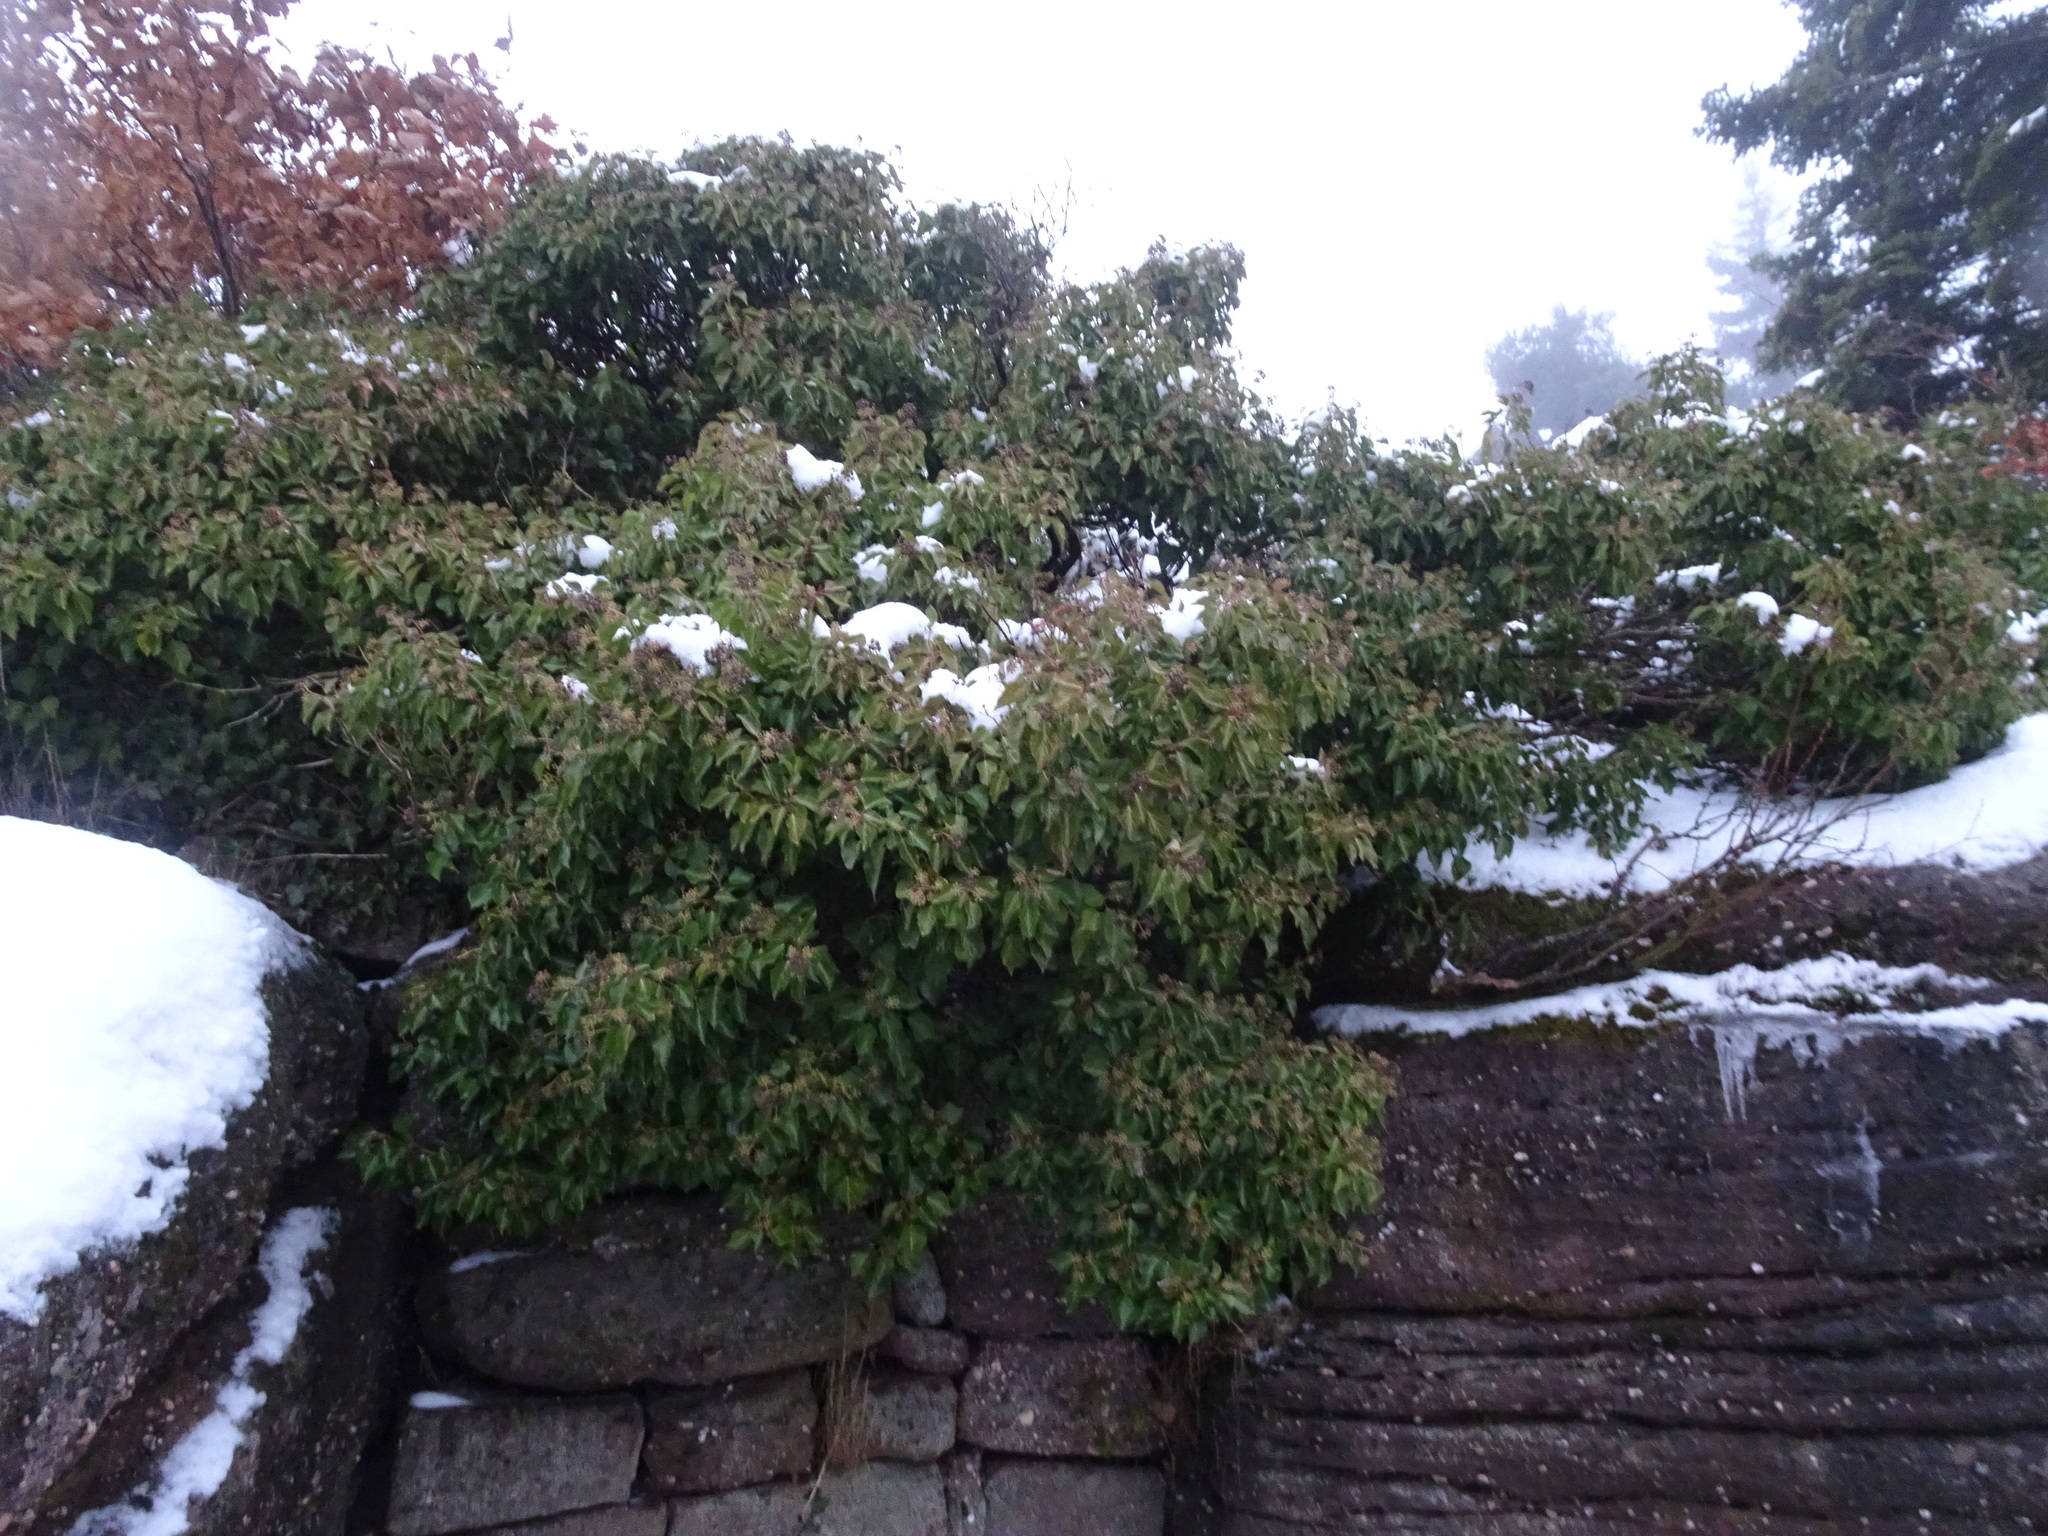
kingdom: Plantae
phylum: Tracheophyta
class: Magnoliopsida
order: Apiales
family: Araliaceae
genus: Hedera
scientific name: Hedera helix
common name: Ivy
